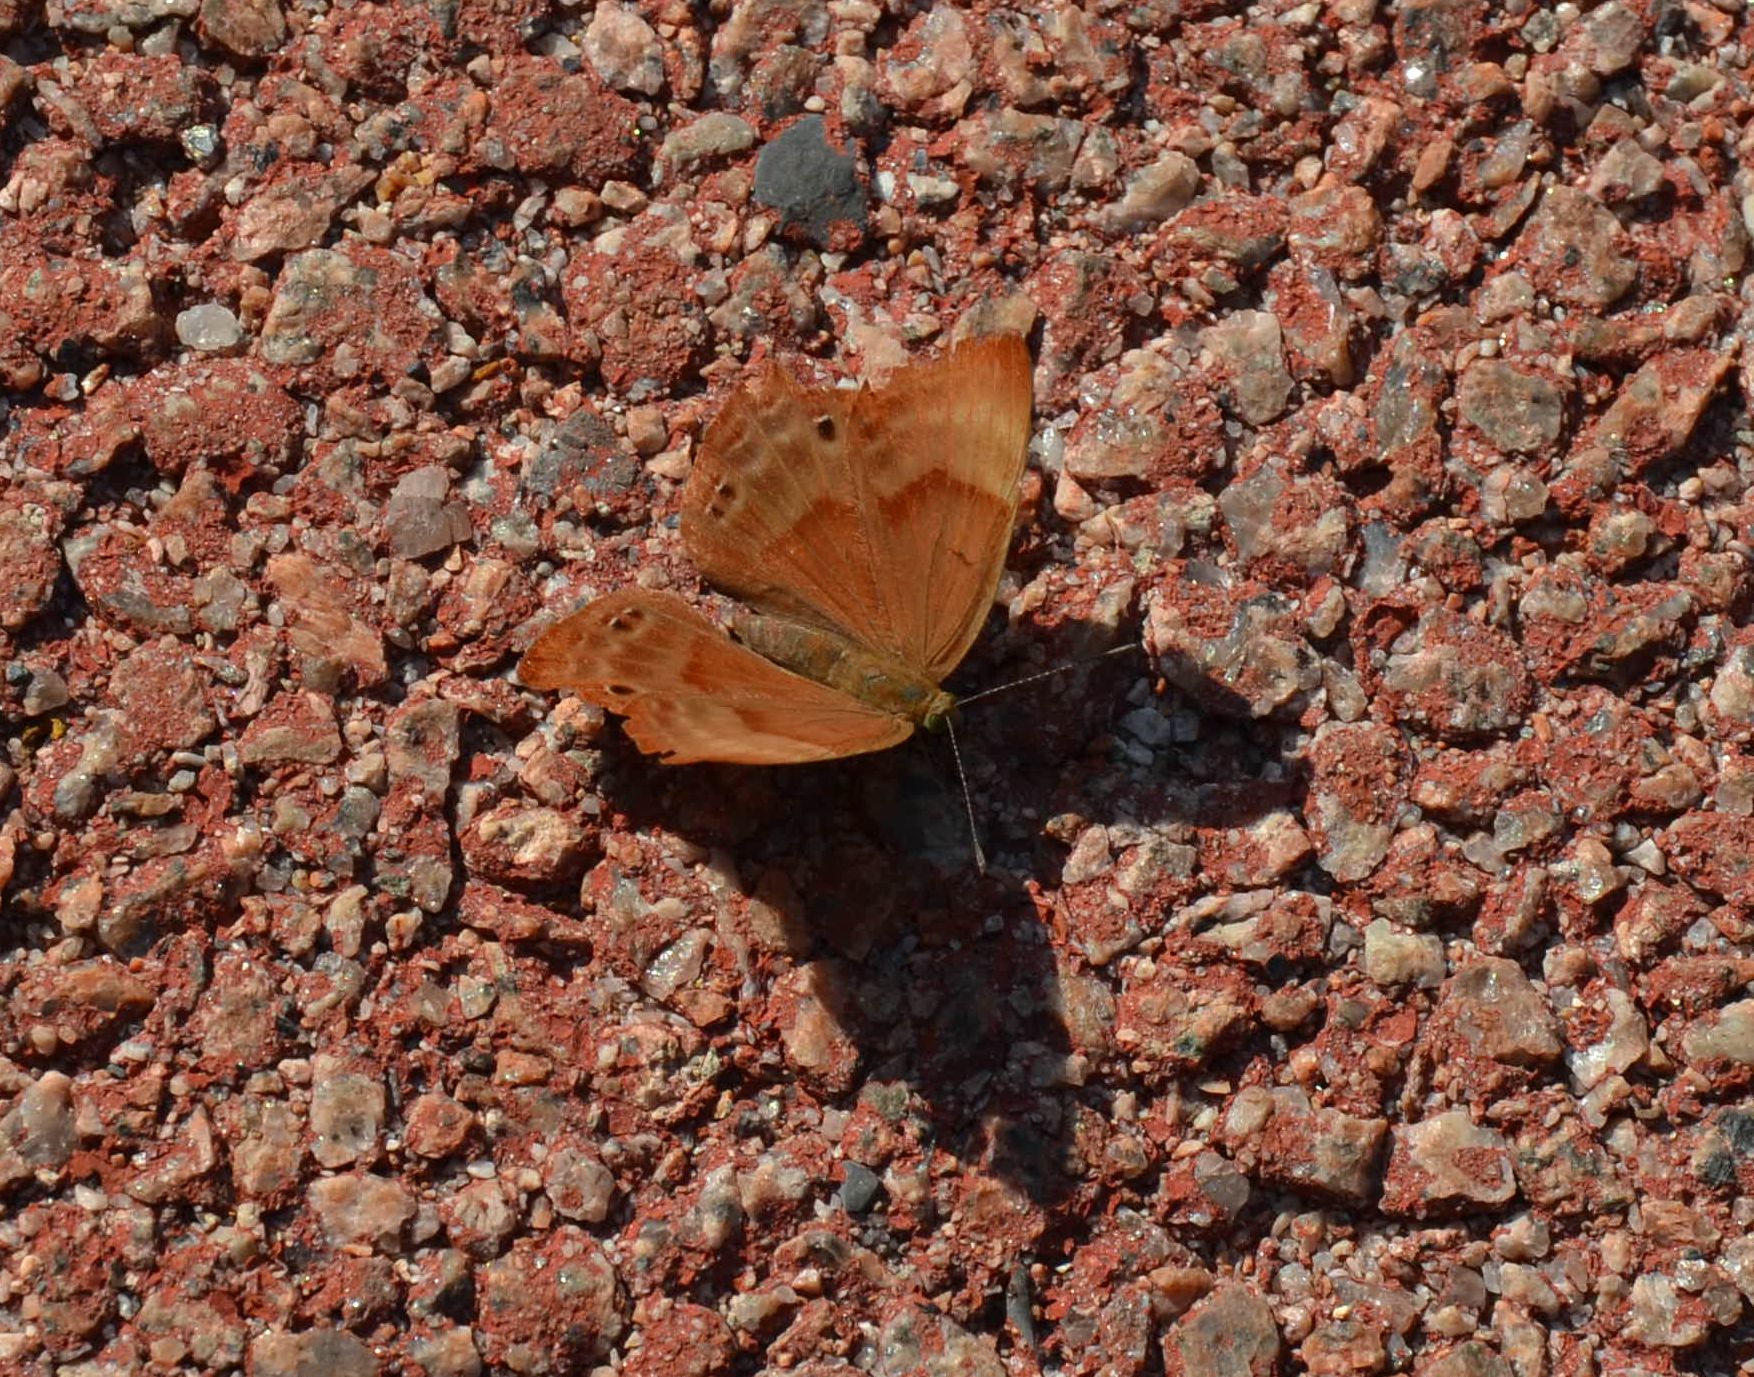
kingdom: Animalia
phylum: Arthropoda
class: Insecta
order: Lepidoptera
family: Lycaenidae
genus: Abisara
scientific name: Abisara echeria
